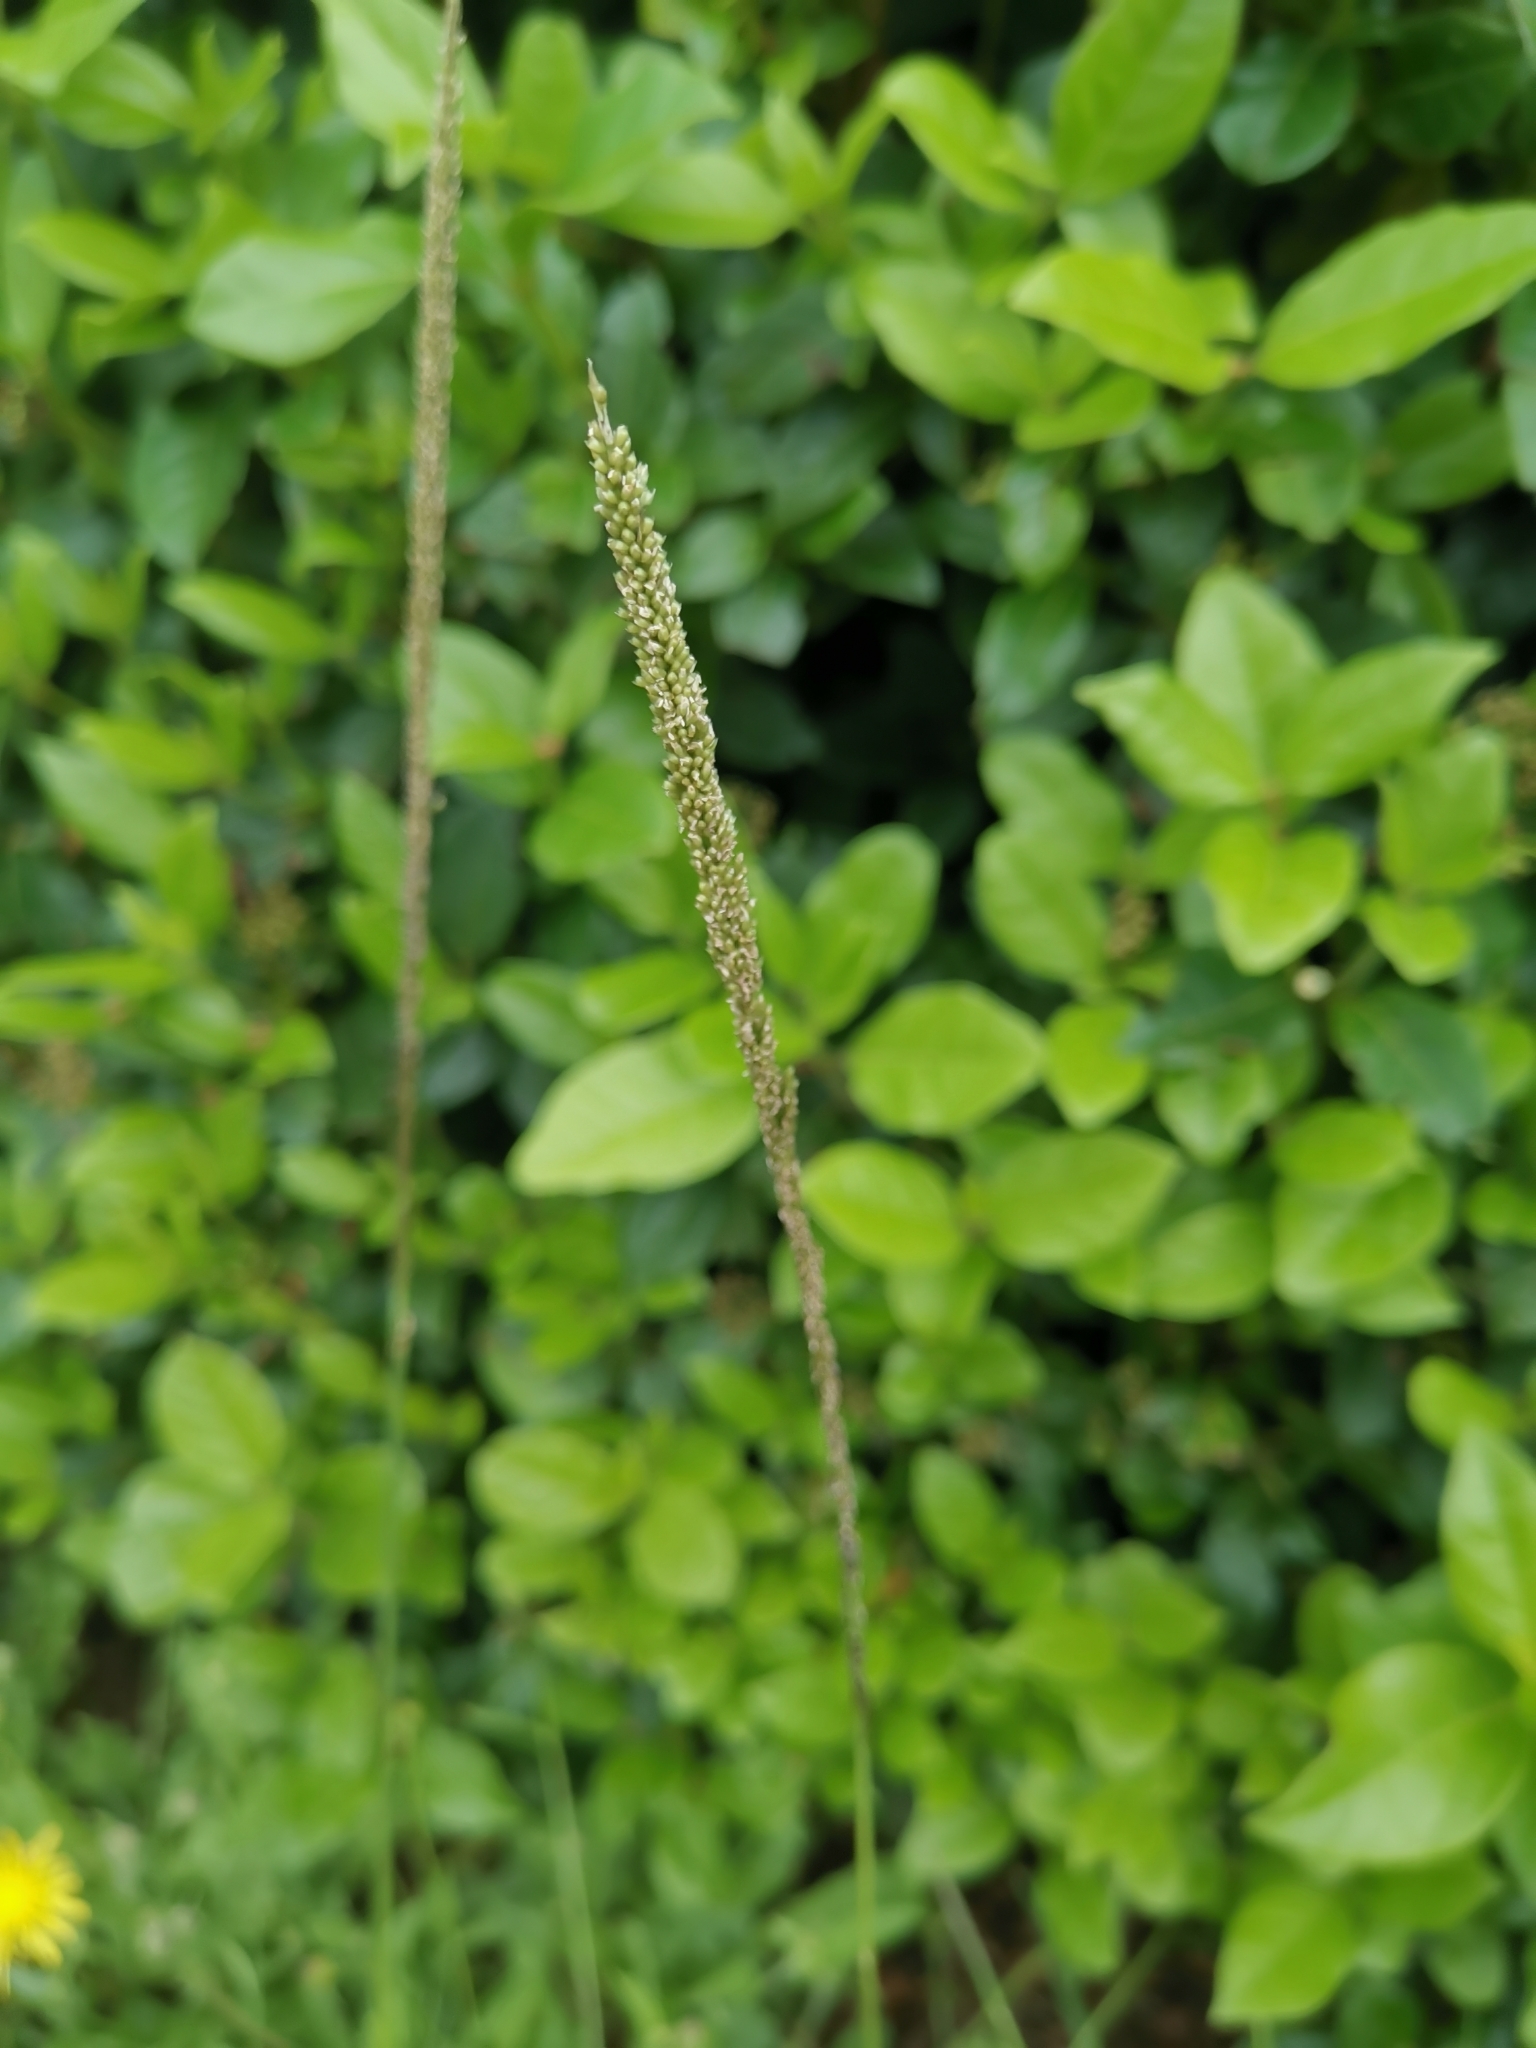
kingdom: Plantae
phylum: Tracheophyta
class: Liliopsida
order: Poales
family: Poaceae
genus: Sporobolus
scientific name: Sporobolus indicus
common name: Smut grass
